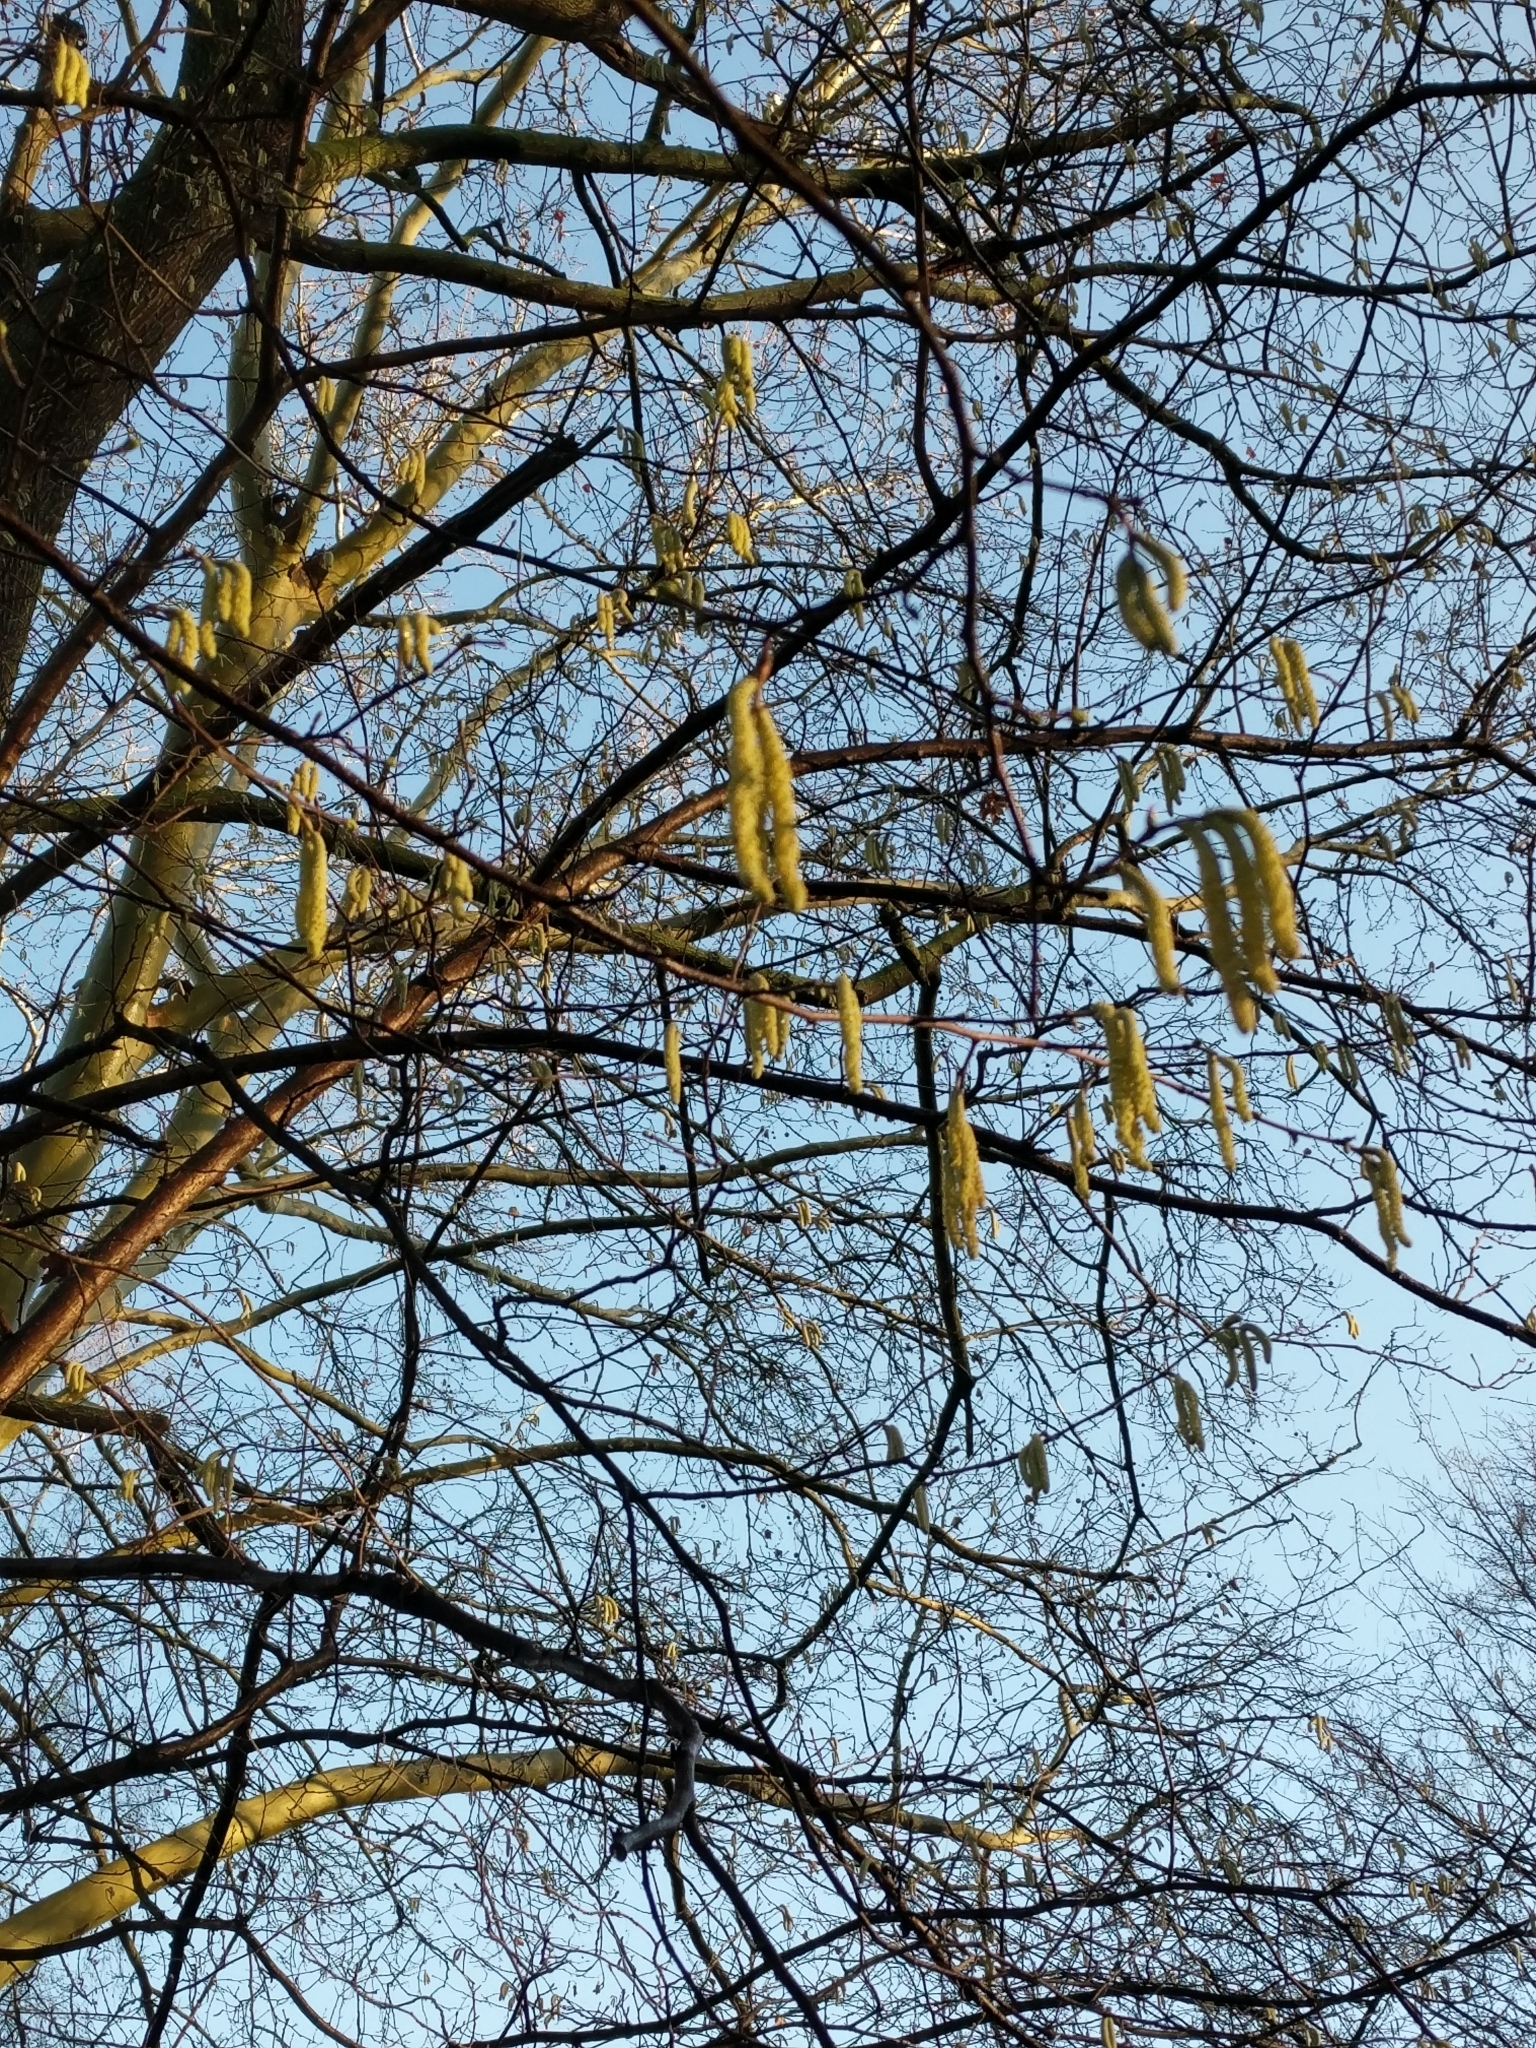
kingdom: Plantae
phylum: Tracheophyta
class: Magnoliopsida
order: Fagales
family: Betulaceae
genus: Corylus
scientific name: Corylus avellana
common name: European hazel
